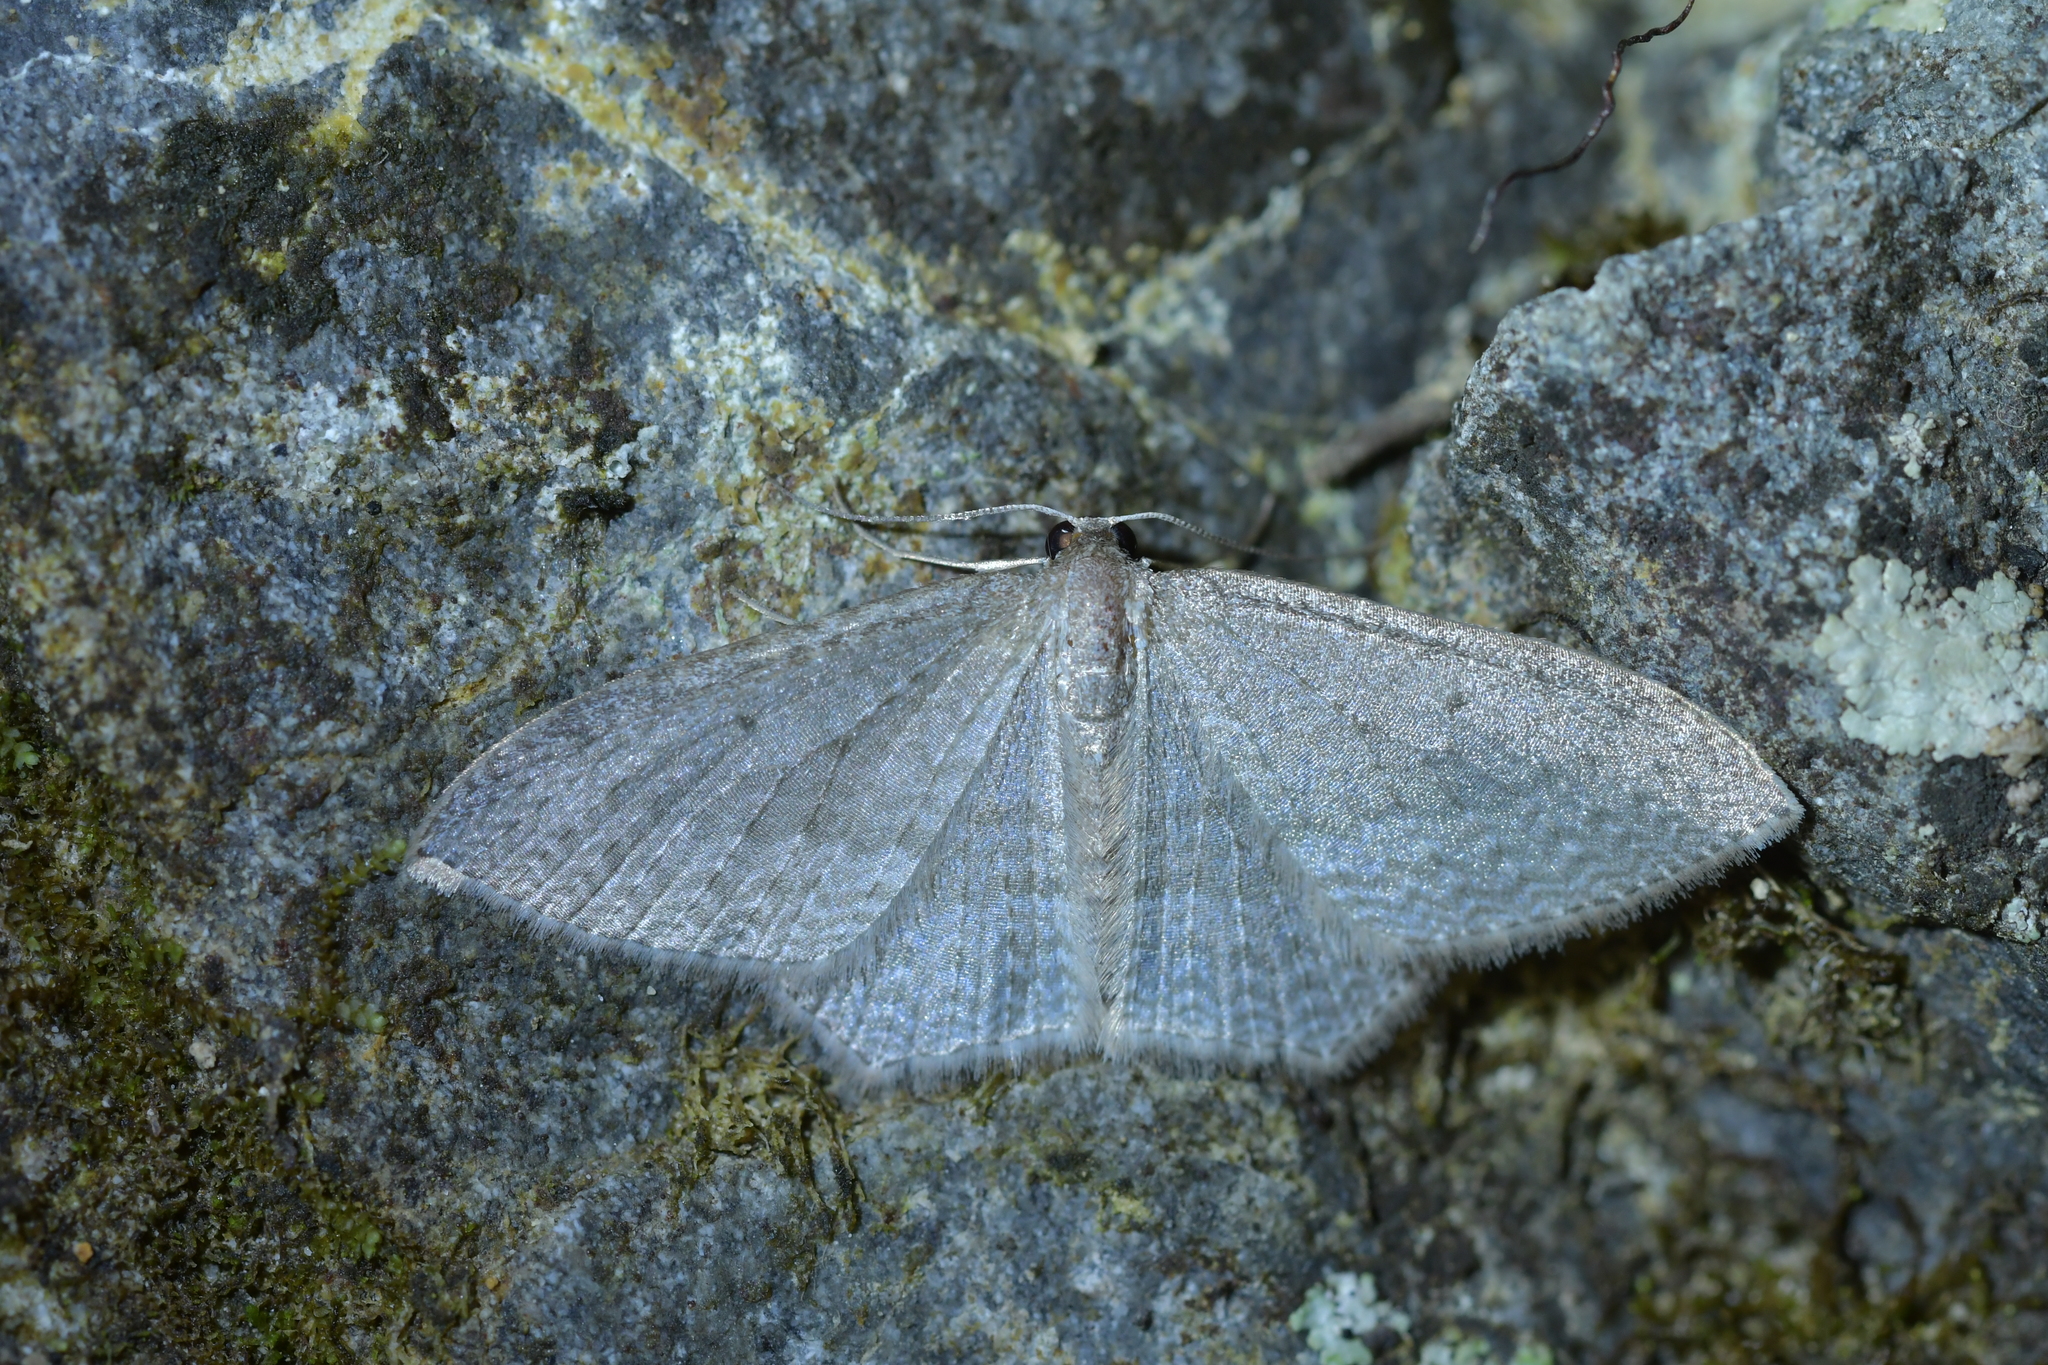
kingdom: Animalia
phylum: Arthropoda
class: Insecta
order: Lepidoptera
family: Geometridae
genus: Poecilasthena
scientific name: Poecilasthena subpurpureata
